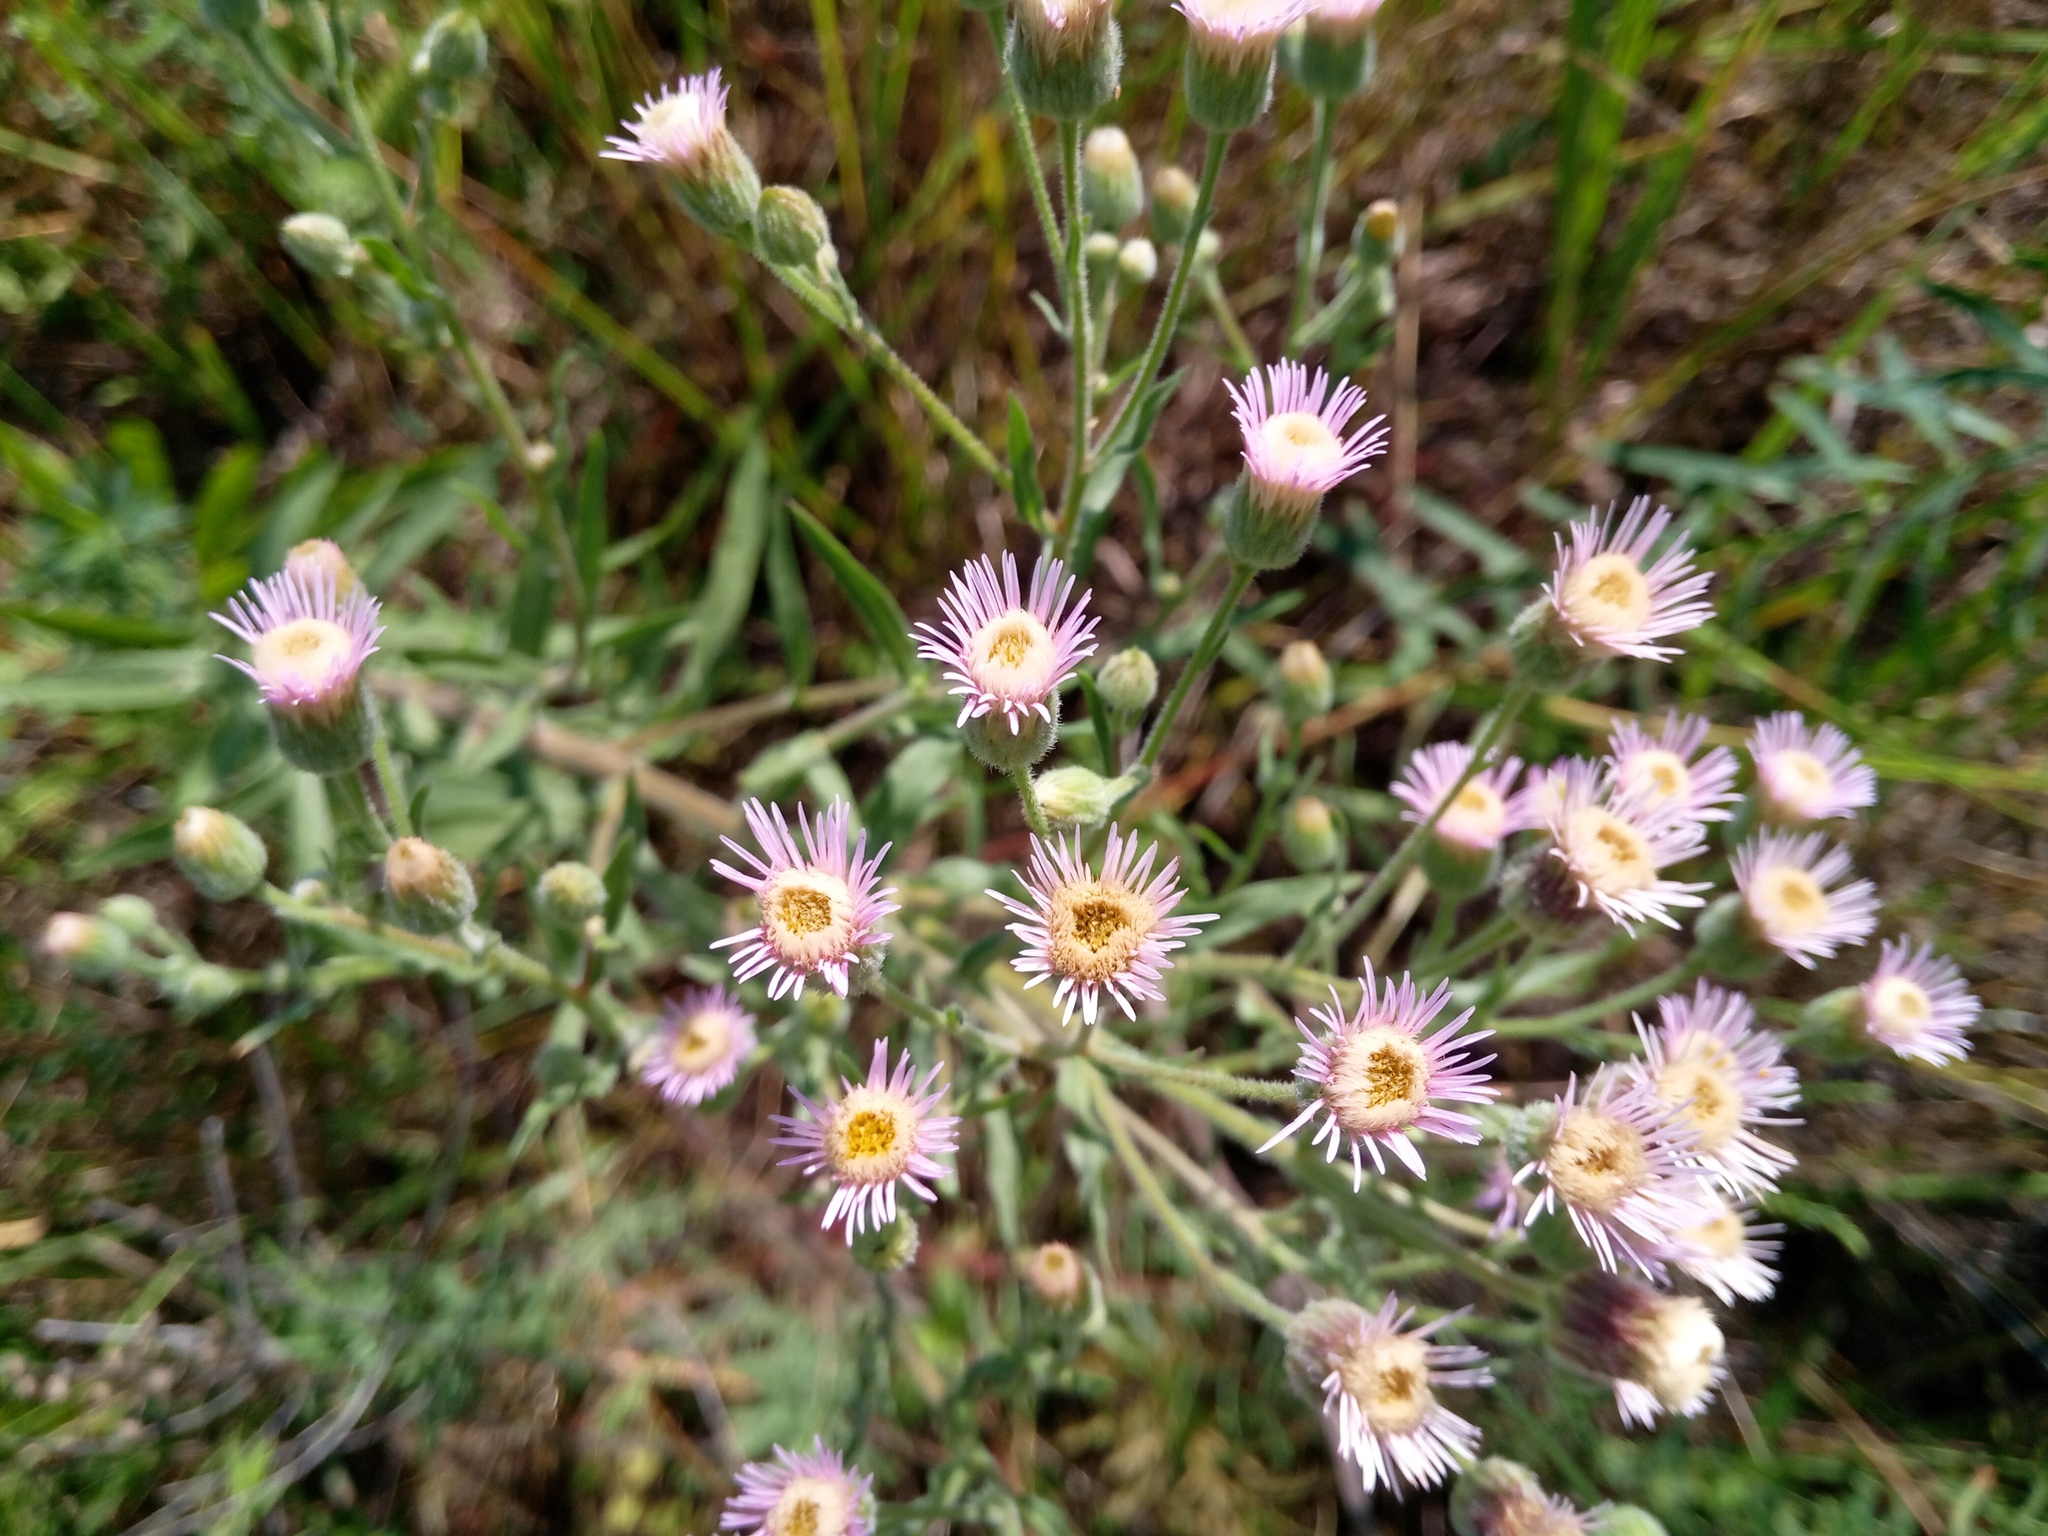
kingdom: Plantae
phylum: Tracheophyta
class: Magnoliopsida
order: Asterales
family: Asteraceae
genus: Erigeron
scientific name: Erigeron acris
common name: Blue fleabane
